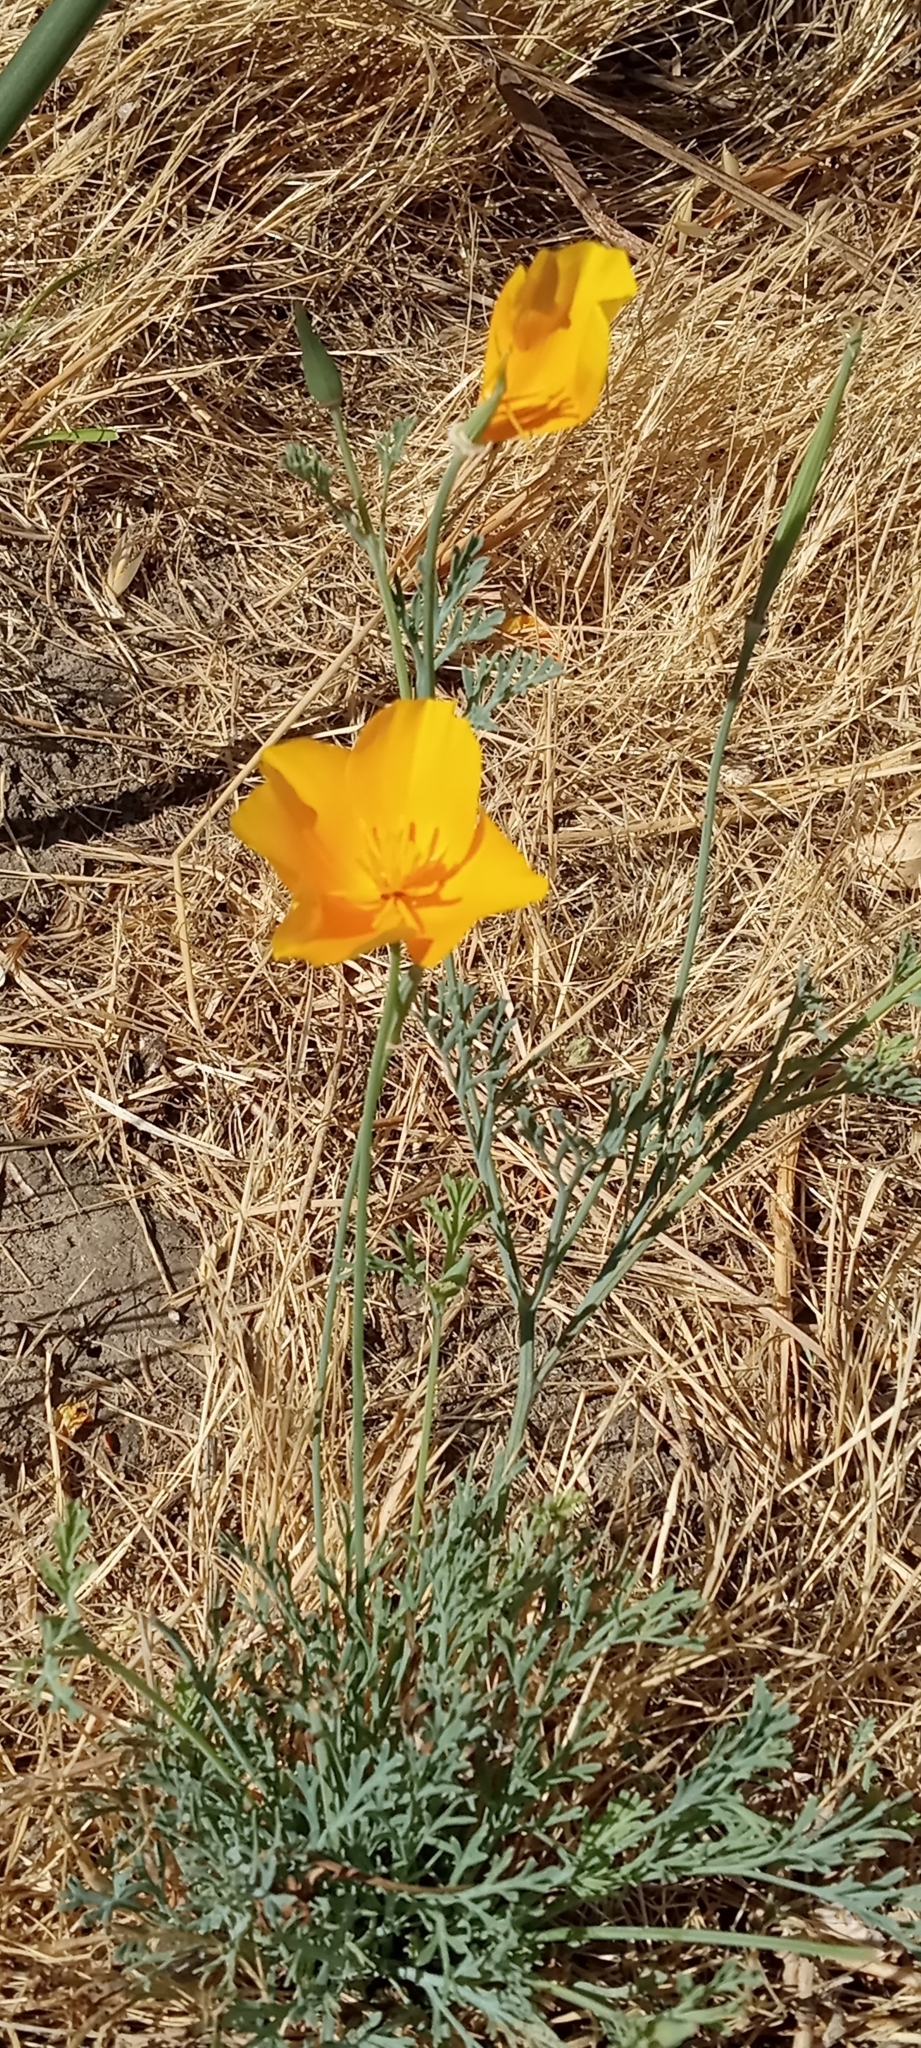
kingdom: Plantae
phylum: Tracheophyta
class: Magnoliopsida
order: Ranunculales
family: Papaveraceae
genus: Eschscholzia
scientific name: Eschscholzia californica
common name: California poppy
